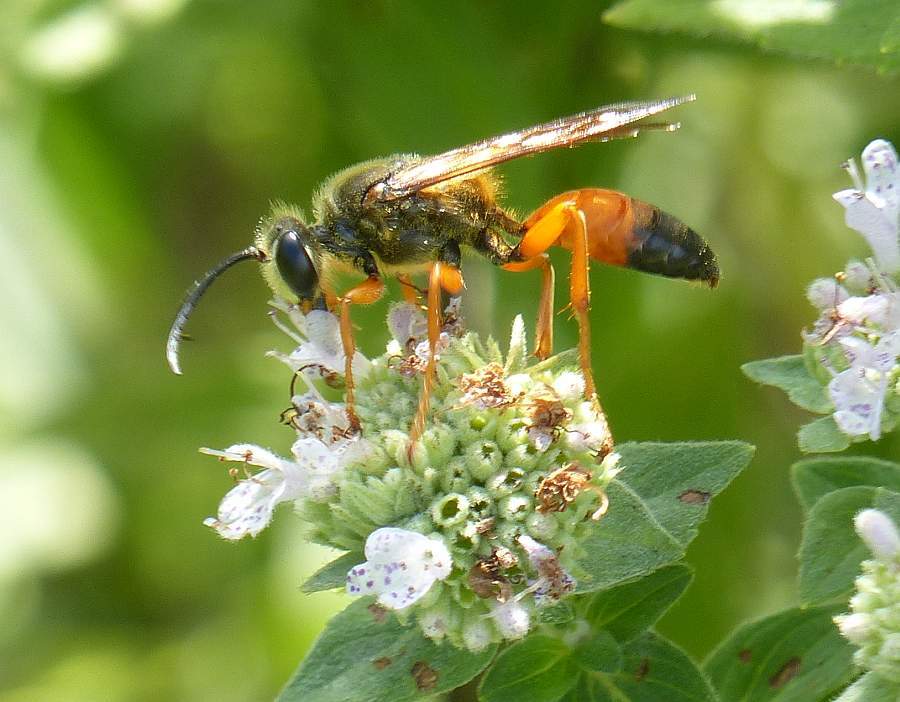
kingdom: Animalia
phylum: Arthropoda
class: Insecta
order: Hymenoptera
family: Sphecidae
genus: Sphex
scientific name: Sphex ichneumoneus
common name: Great golden digger wasp
